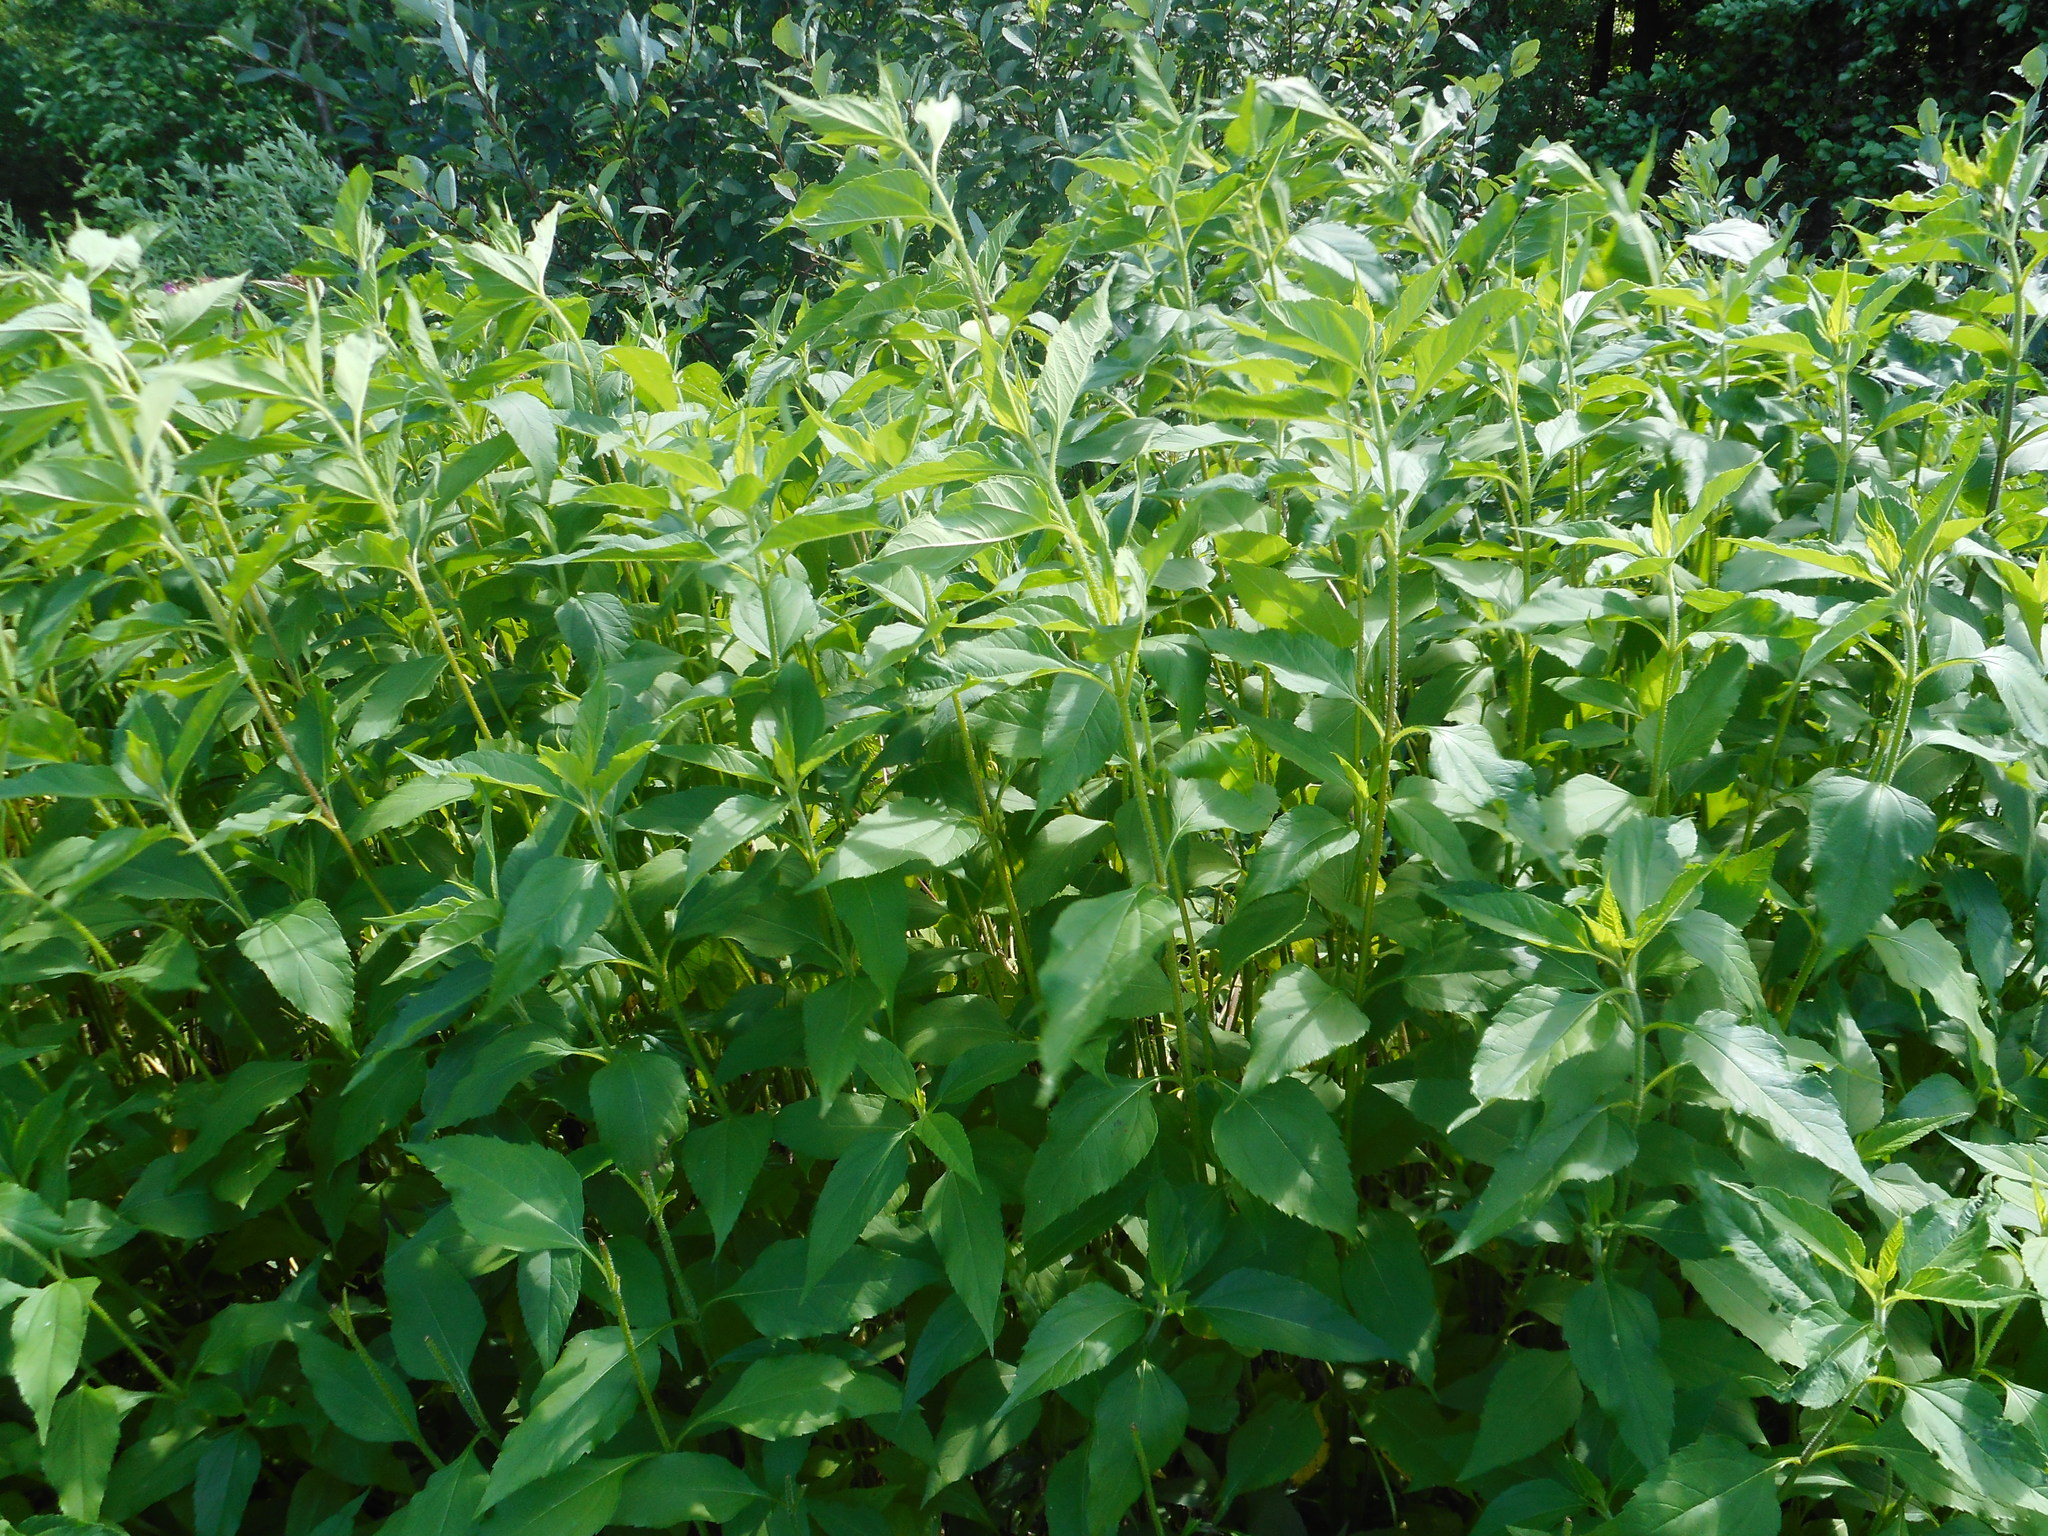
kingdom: Plantae
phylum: Tracheophyta
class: Magnoliopsida
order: Asterales
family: Asteraceae
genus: Helianthus
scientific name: Helianthus tuberosus
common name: Jerusalem artichoke
